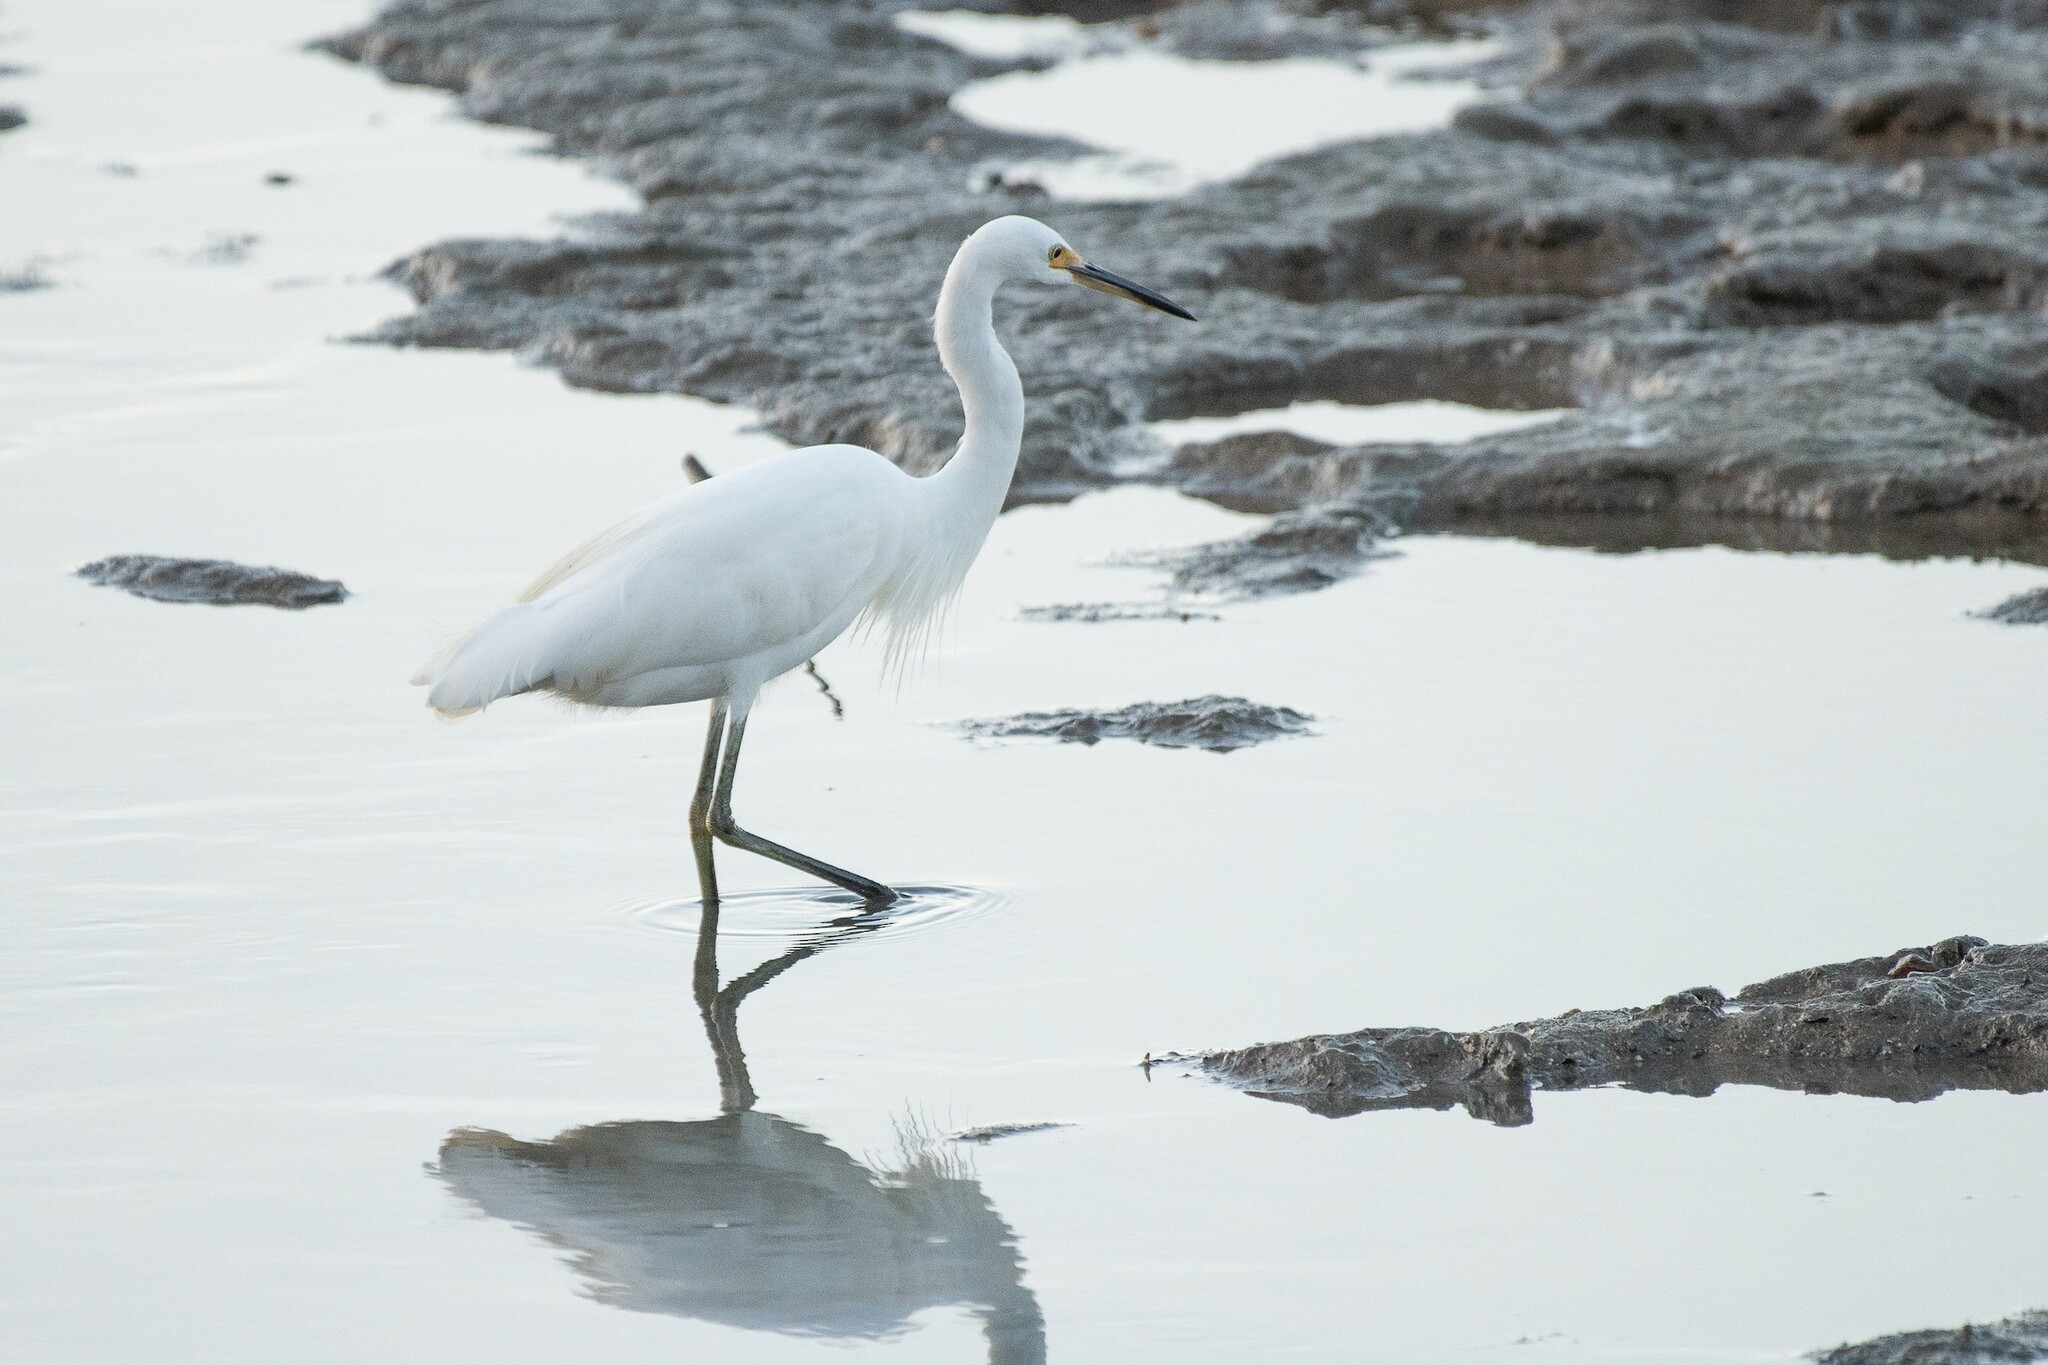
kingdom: Animalia
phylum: Chordata
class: Aves
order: Pelecaniformes
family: Ardeidae
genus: Egretta
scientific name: Egretta garzetta
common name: Little egret
